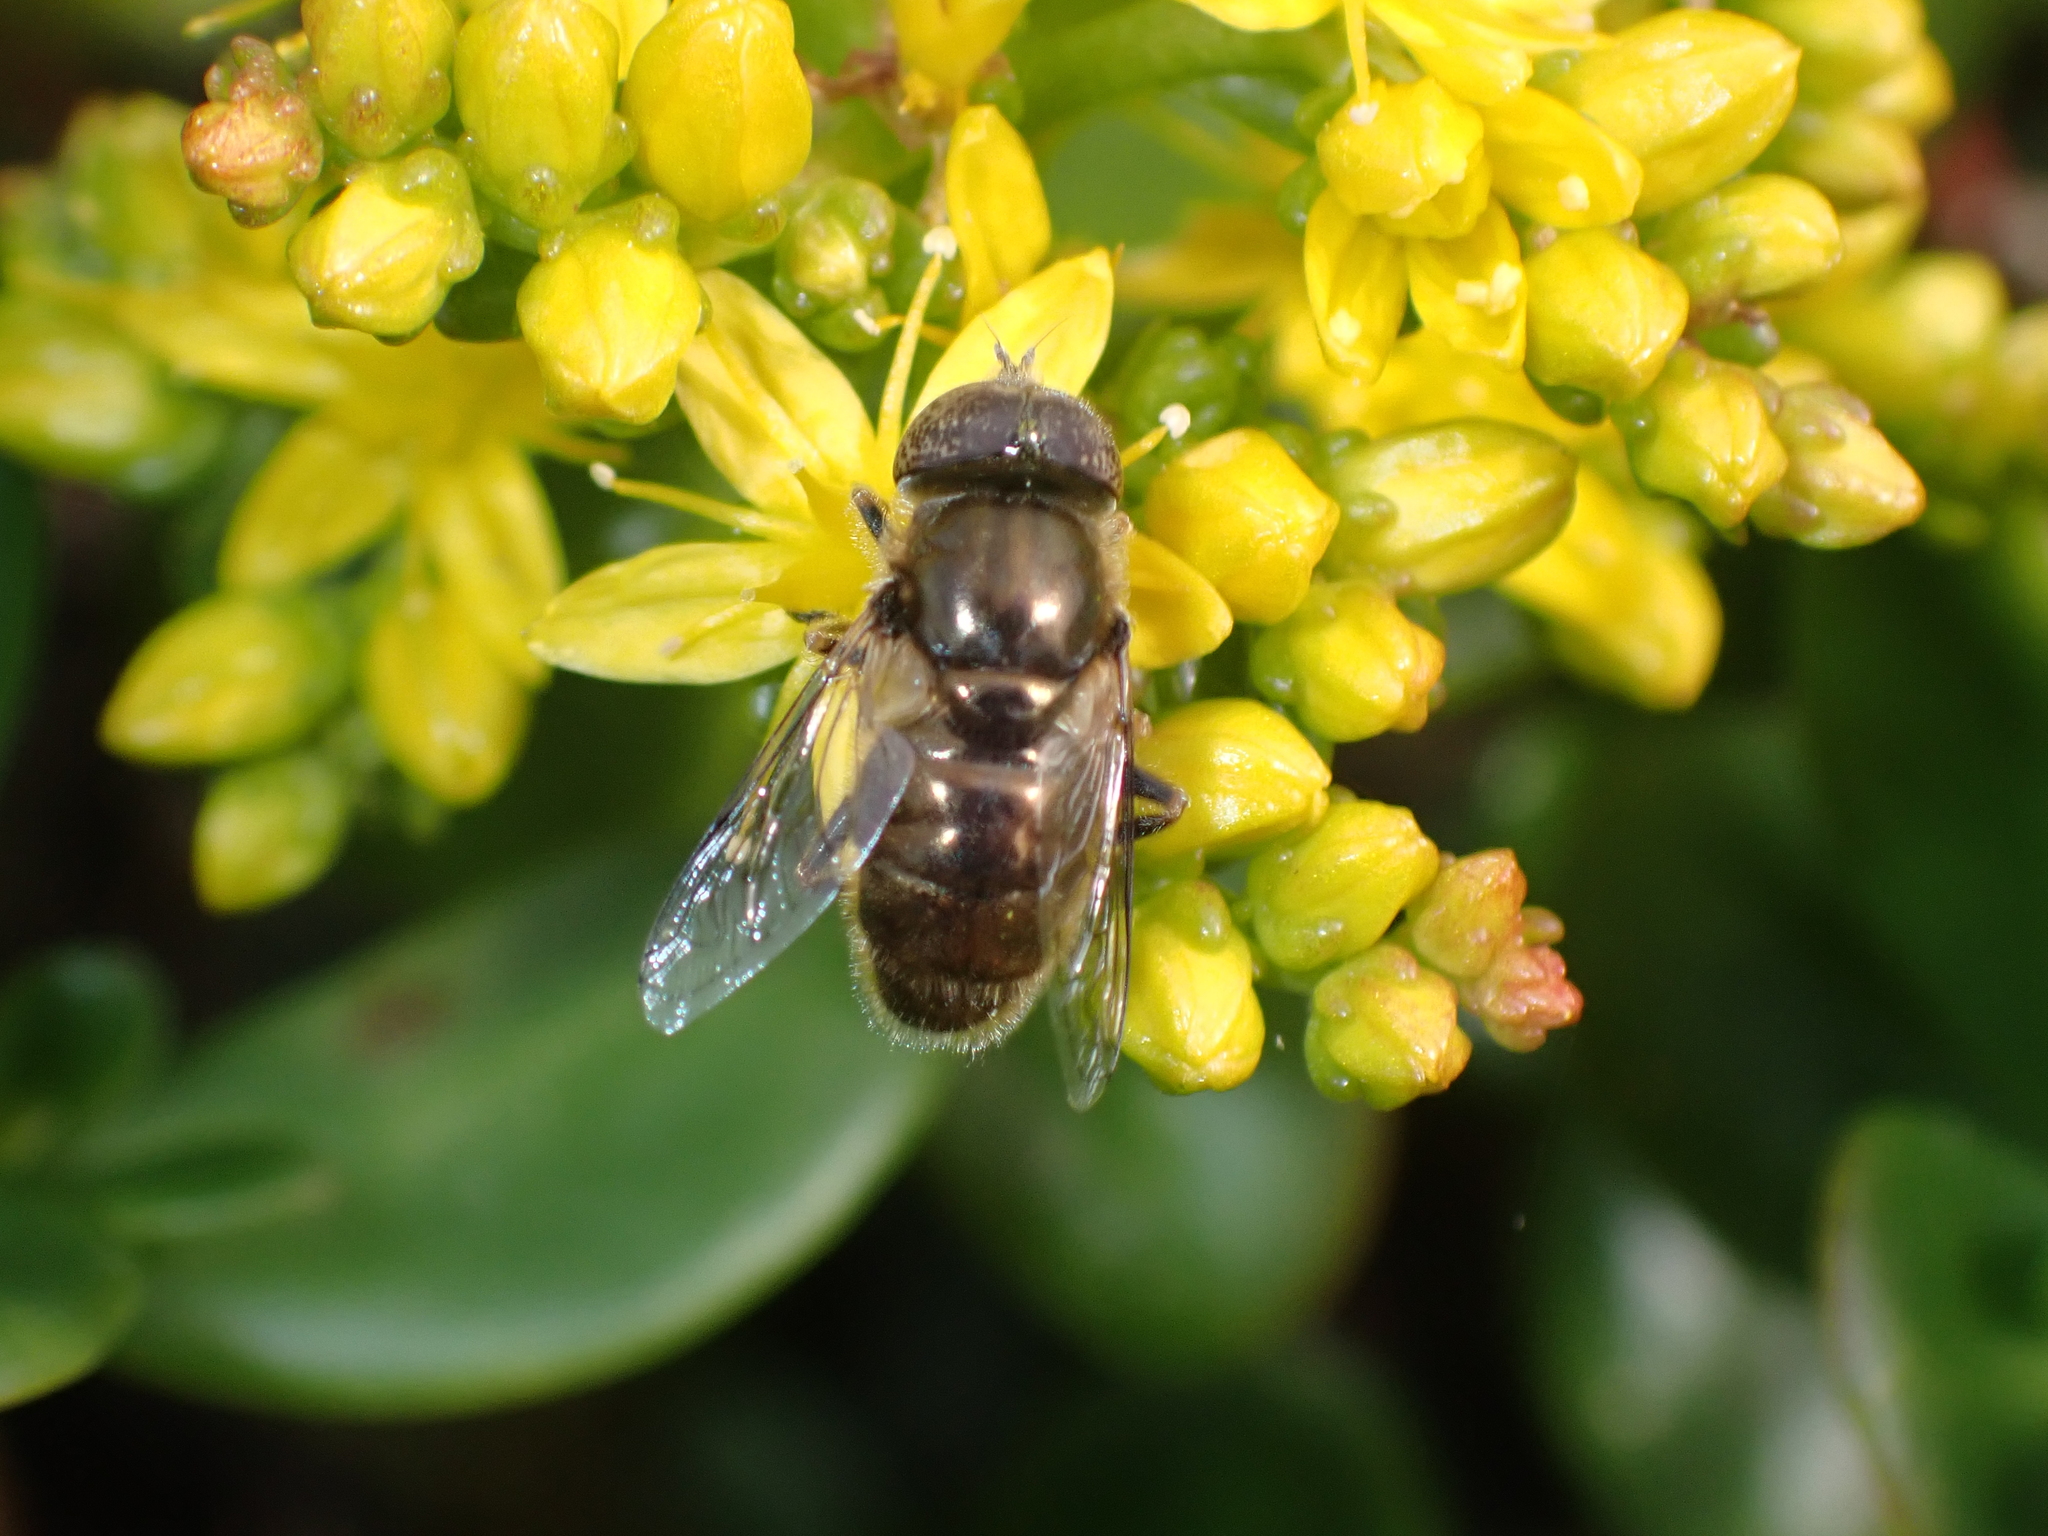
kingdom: Animalia
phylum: Arthropoda
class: Insecta
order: Diptera
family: Syrphidae
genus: Eristalinus
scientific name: Eristalinus aeneus
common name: Syrphid fly
